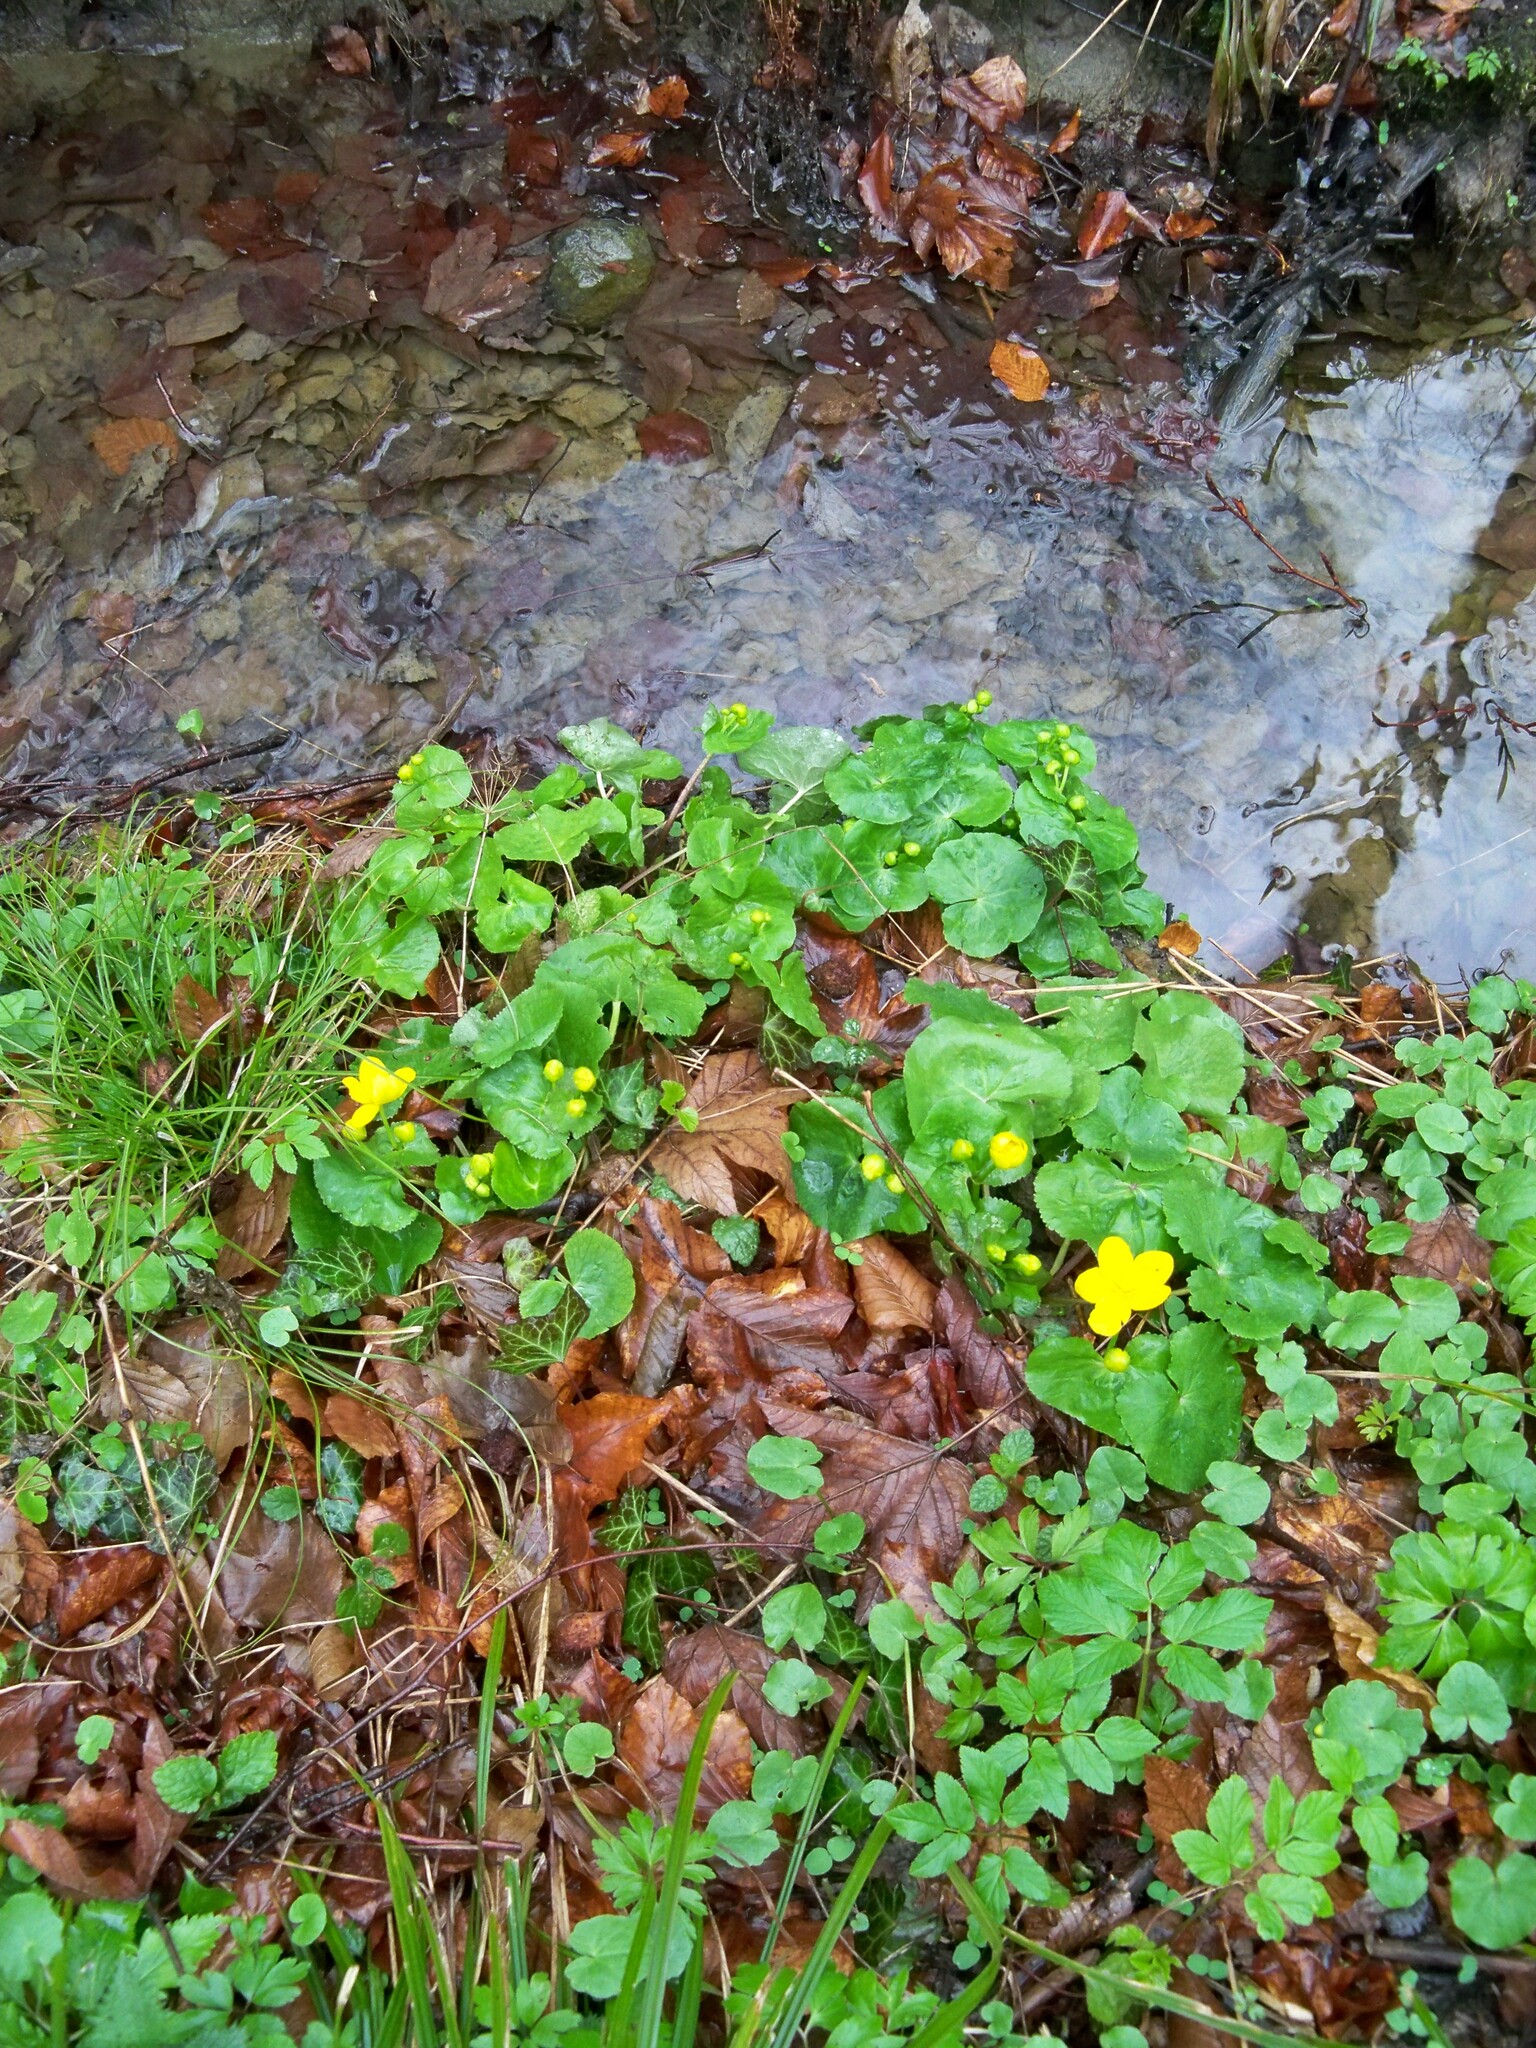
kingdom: Plantae
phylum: Tracheophyta
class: Magnoliopsida
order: Ranunculales
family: Ranunculaceae
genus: Caltha
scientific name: Caltha palustris
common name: Marsh marigold
